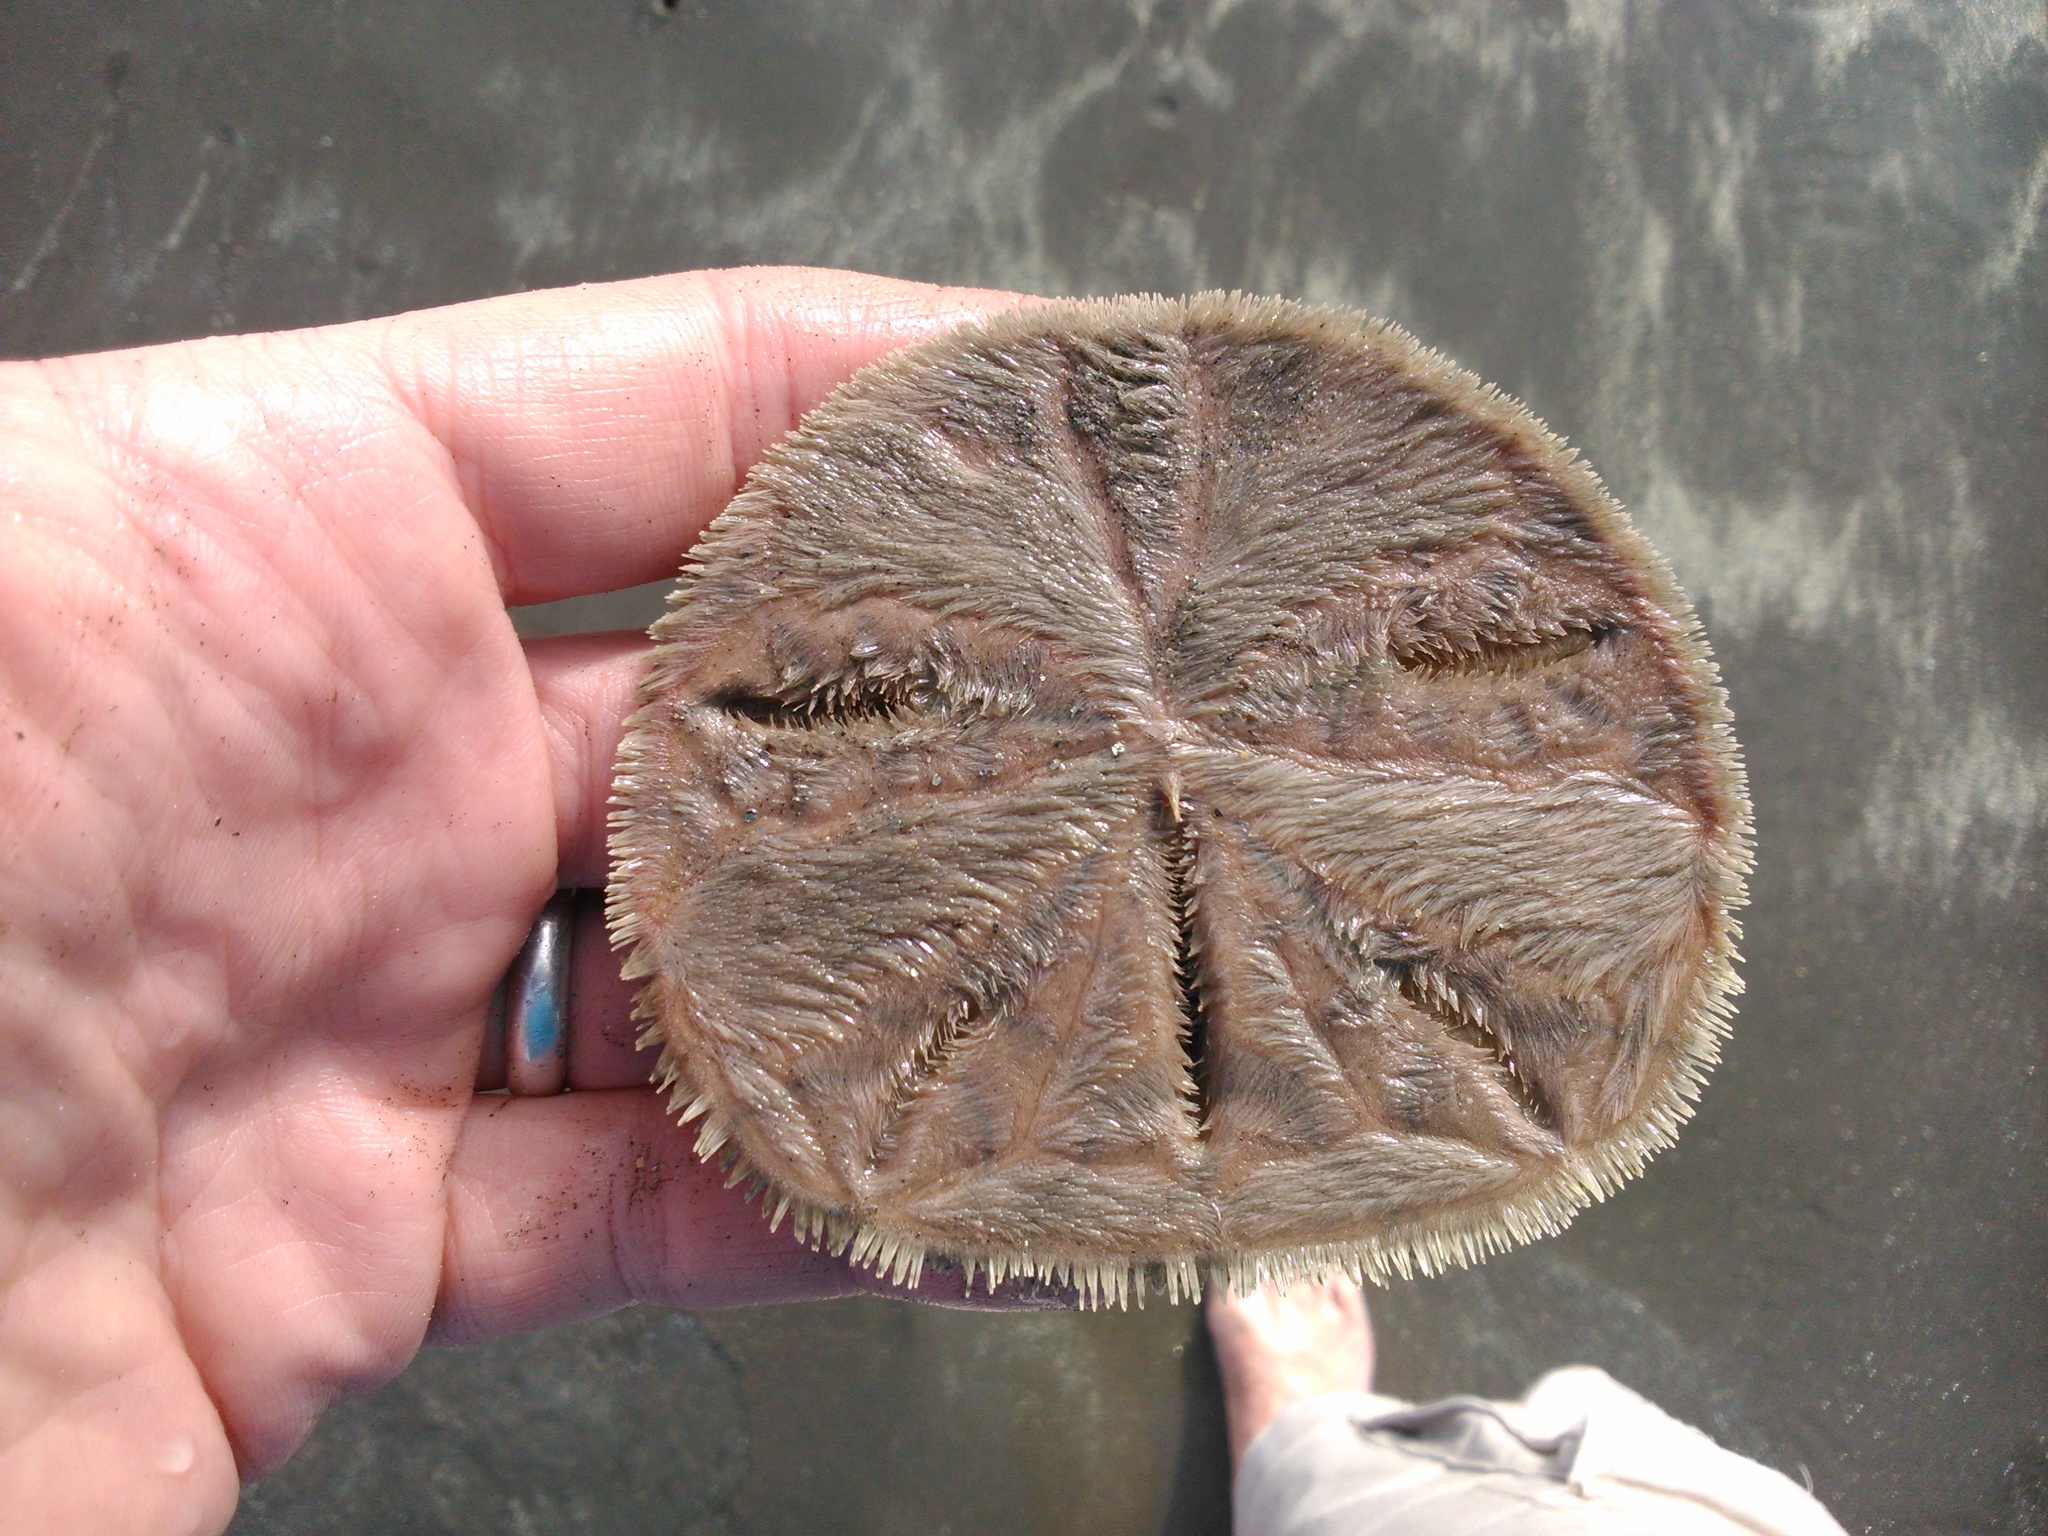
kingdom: Animalia
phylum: Echinodermata
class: Echinoidea
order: Echinolampadacea
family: Mellitidae
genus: Lanthonia
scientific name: Lanthonia longifissa
